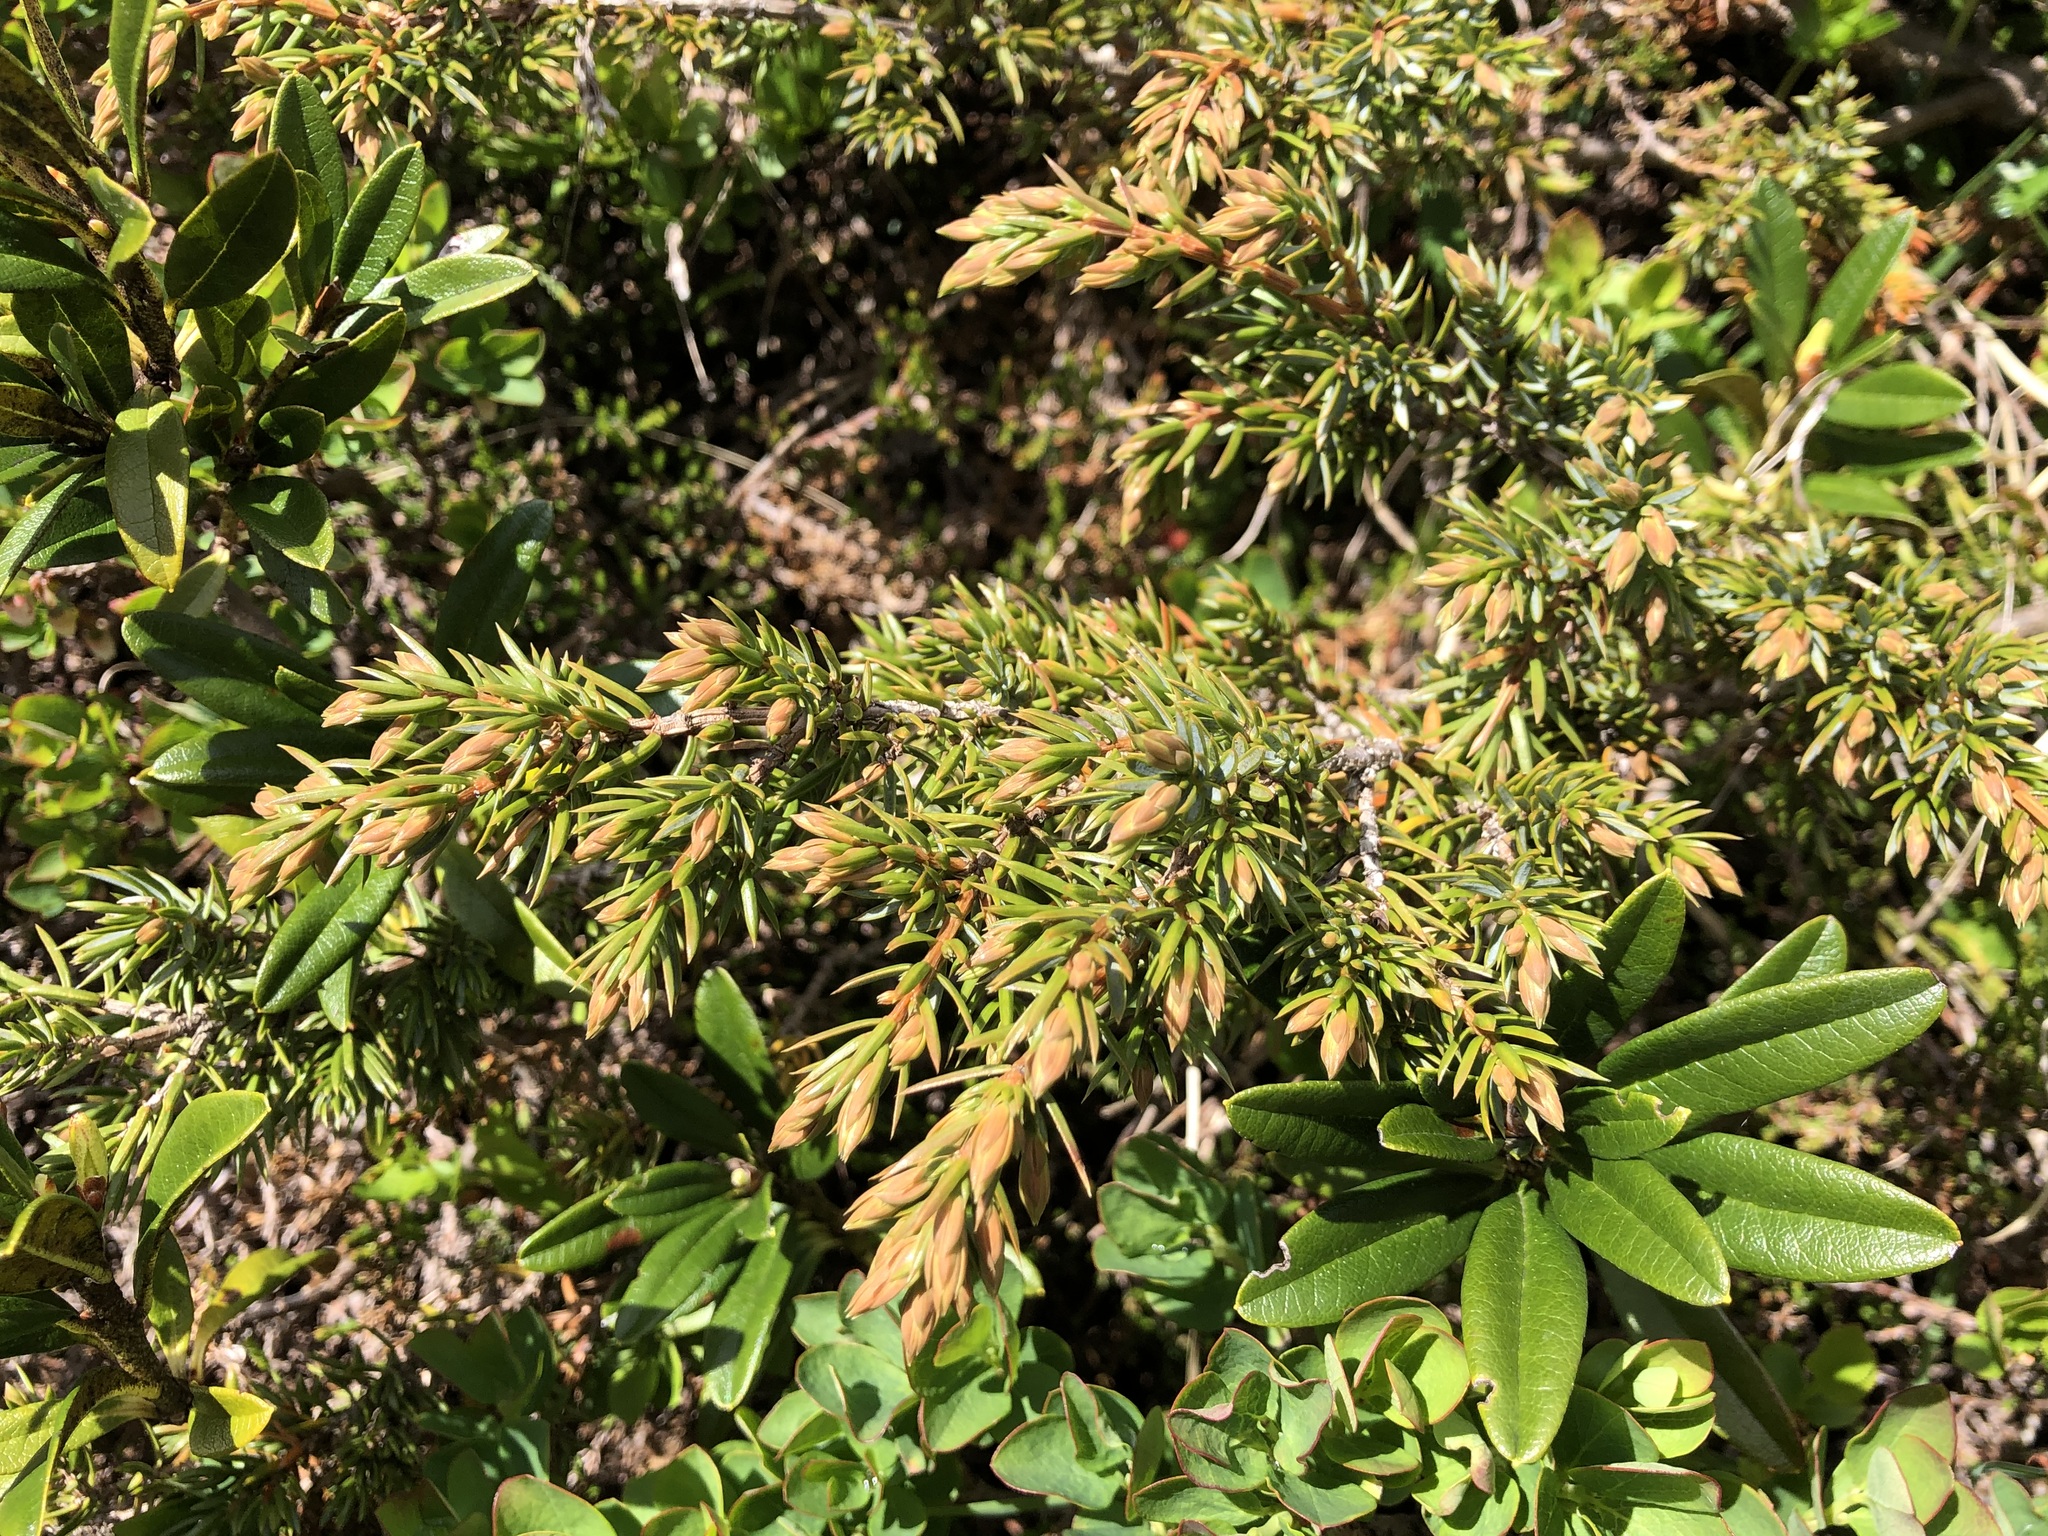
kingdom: Plantae
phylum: Tracheophyta
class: Pinopsida
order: Pinales
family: Cupressaceae
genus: Juniperus
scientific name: Juniperus communis
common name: Common juniper
